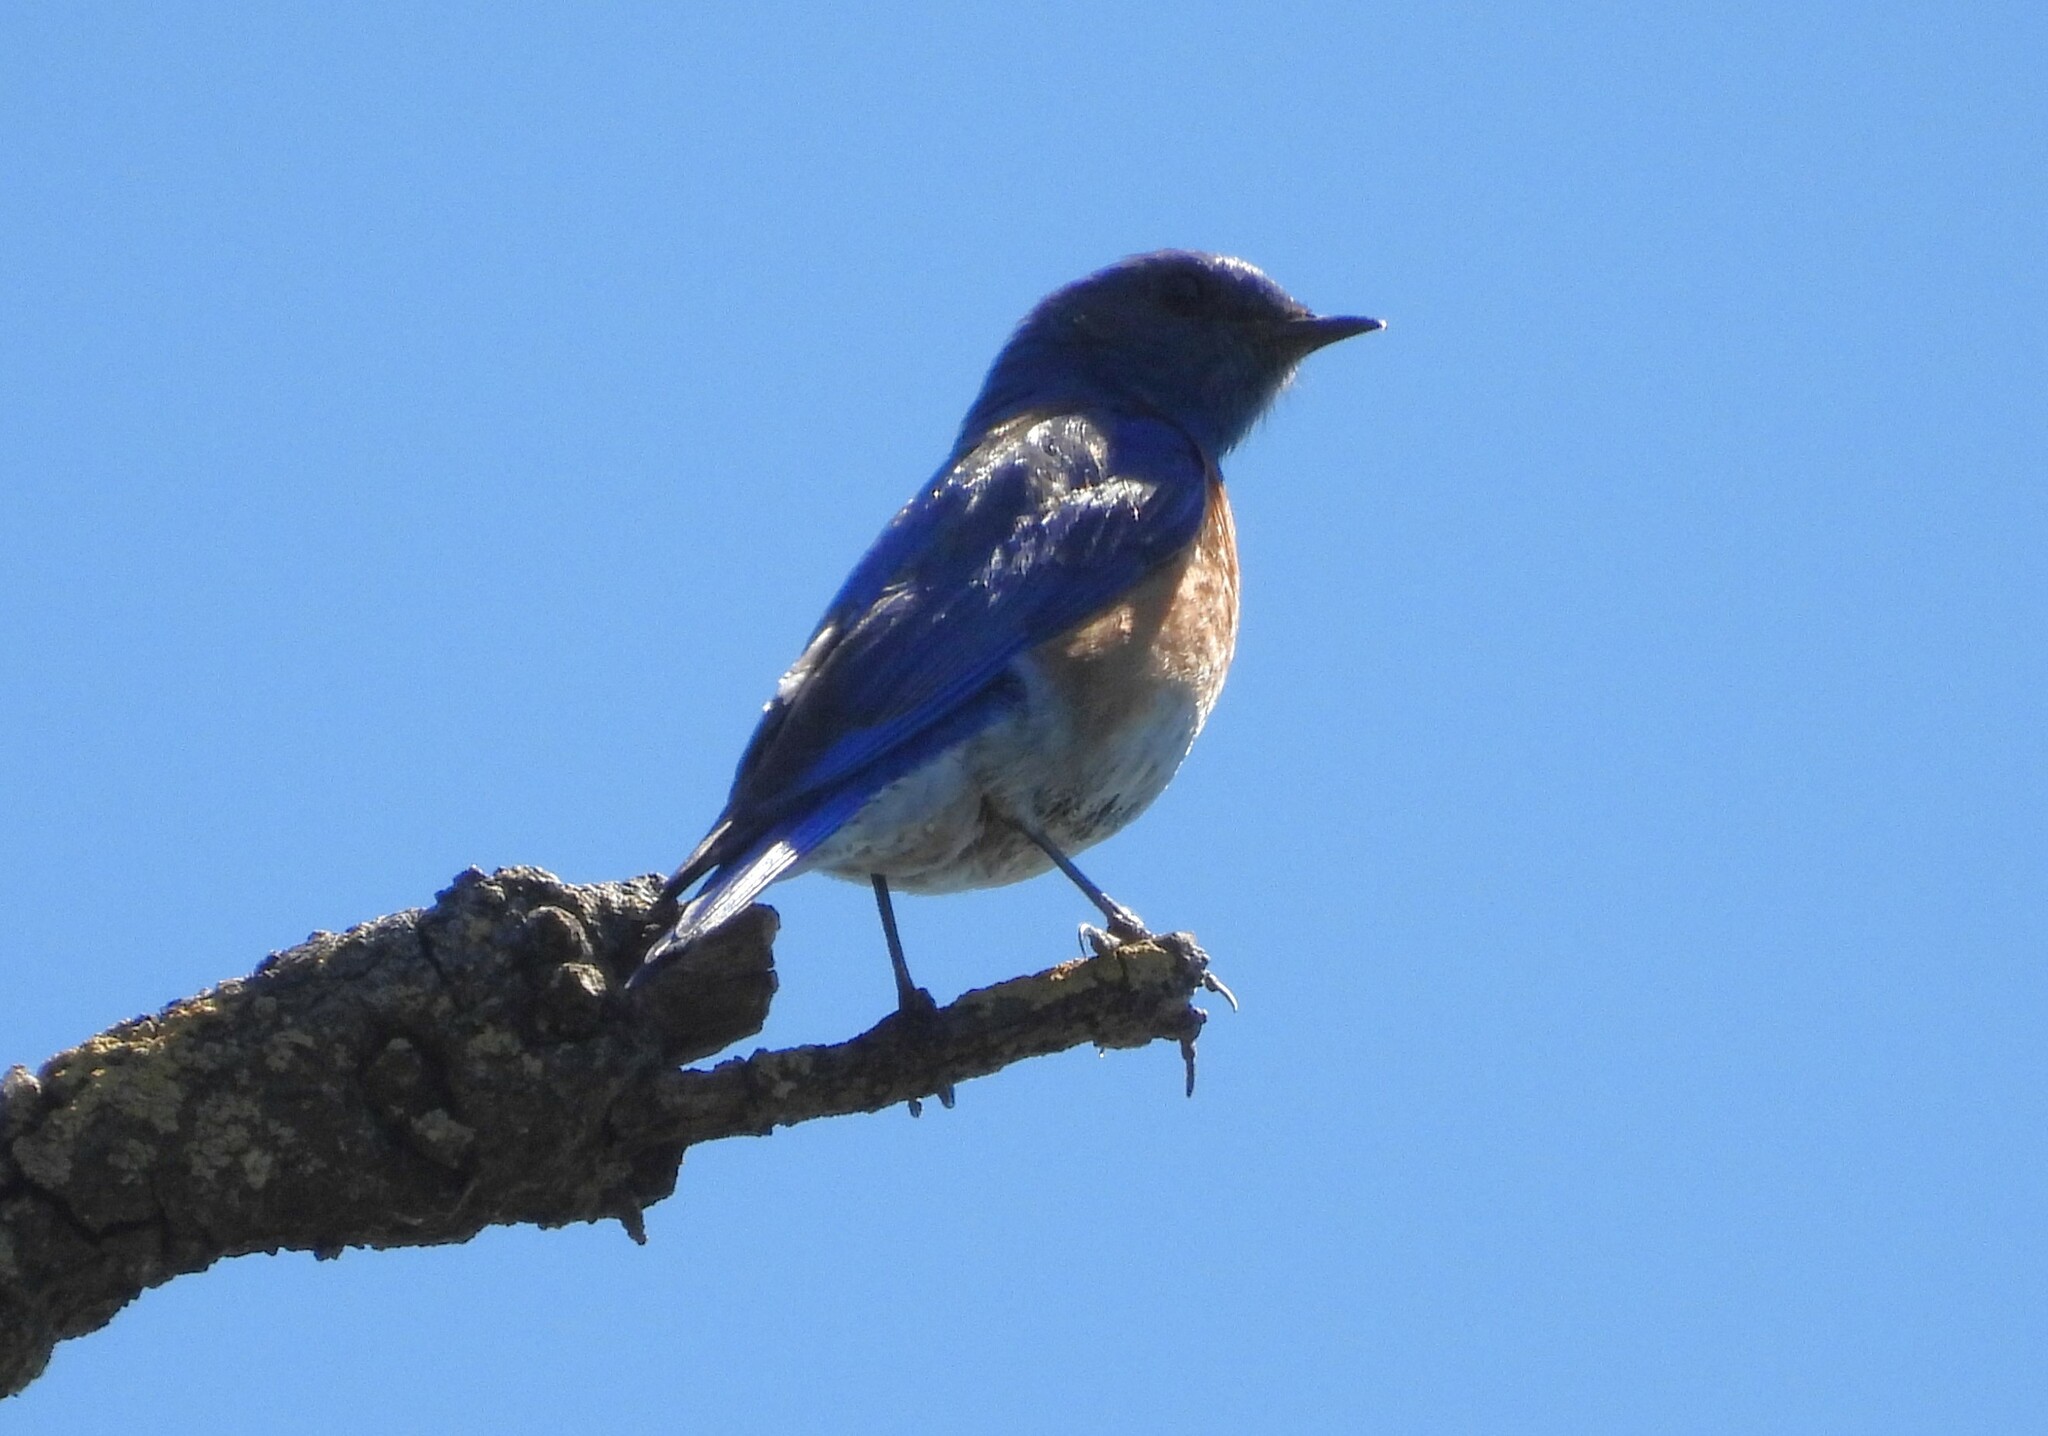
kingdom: Animalia
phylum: Chordata
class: Aves
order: Passeriformes
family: Turdidae
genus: Sialia
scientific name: Sialia mexicana
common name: Western bluebird
